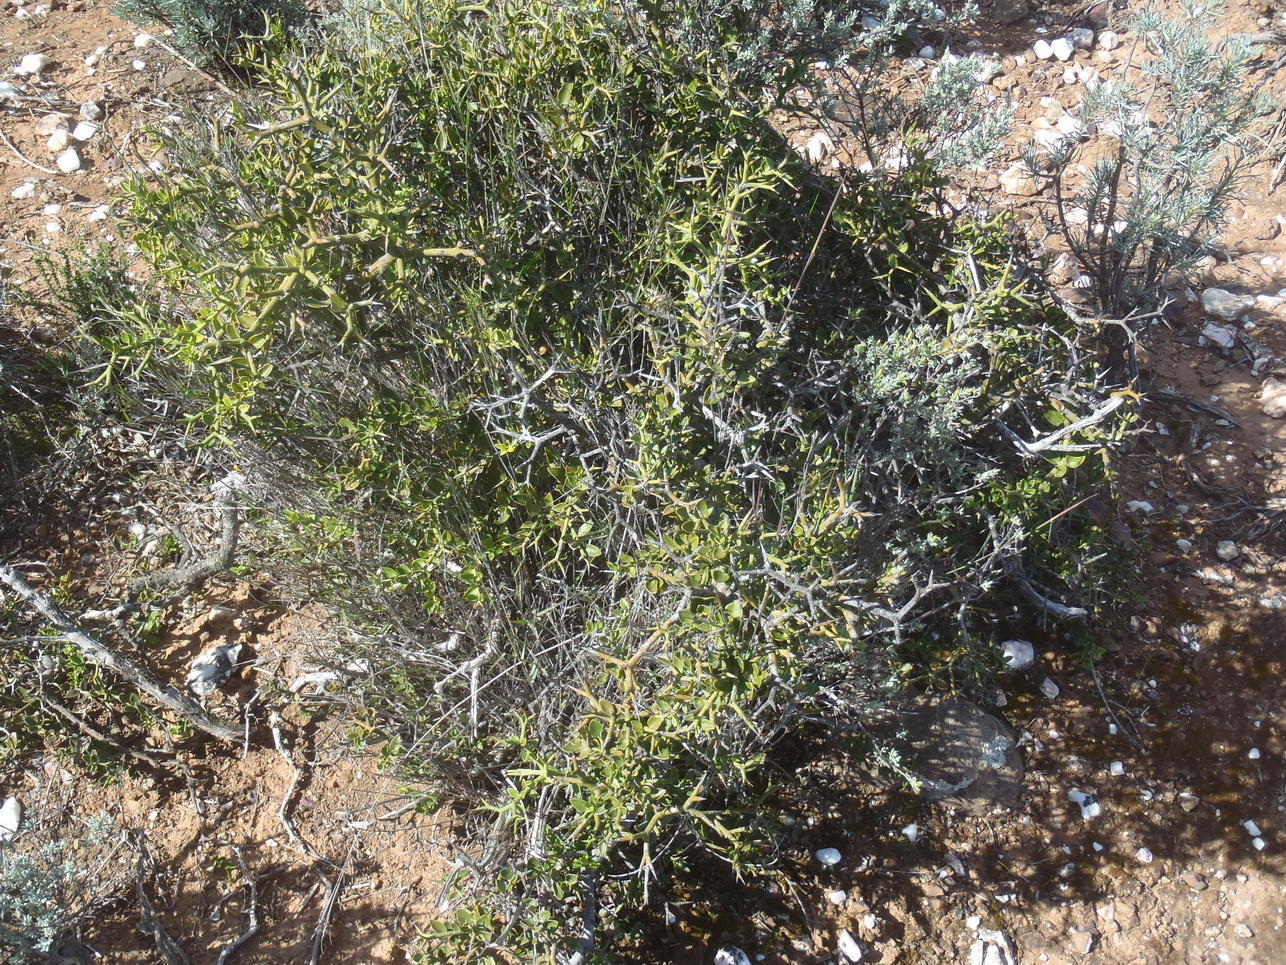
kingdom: Plantae
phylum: Tracheophyta
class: Magnoliopsida
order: Gentianales
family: Apocynaceae
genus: Carissa
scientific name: Carissa haematocarpa
